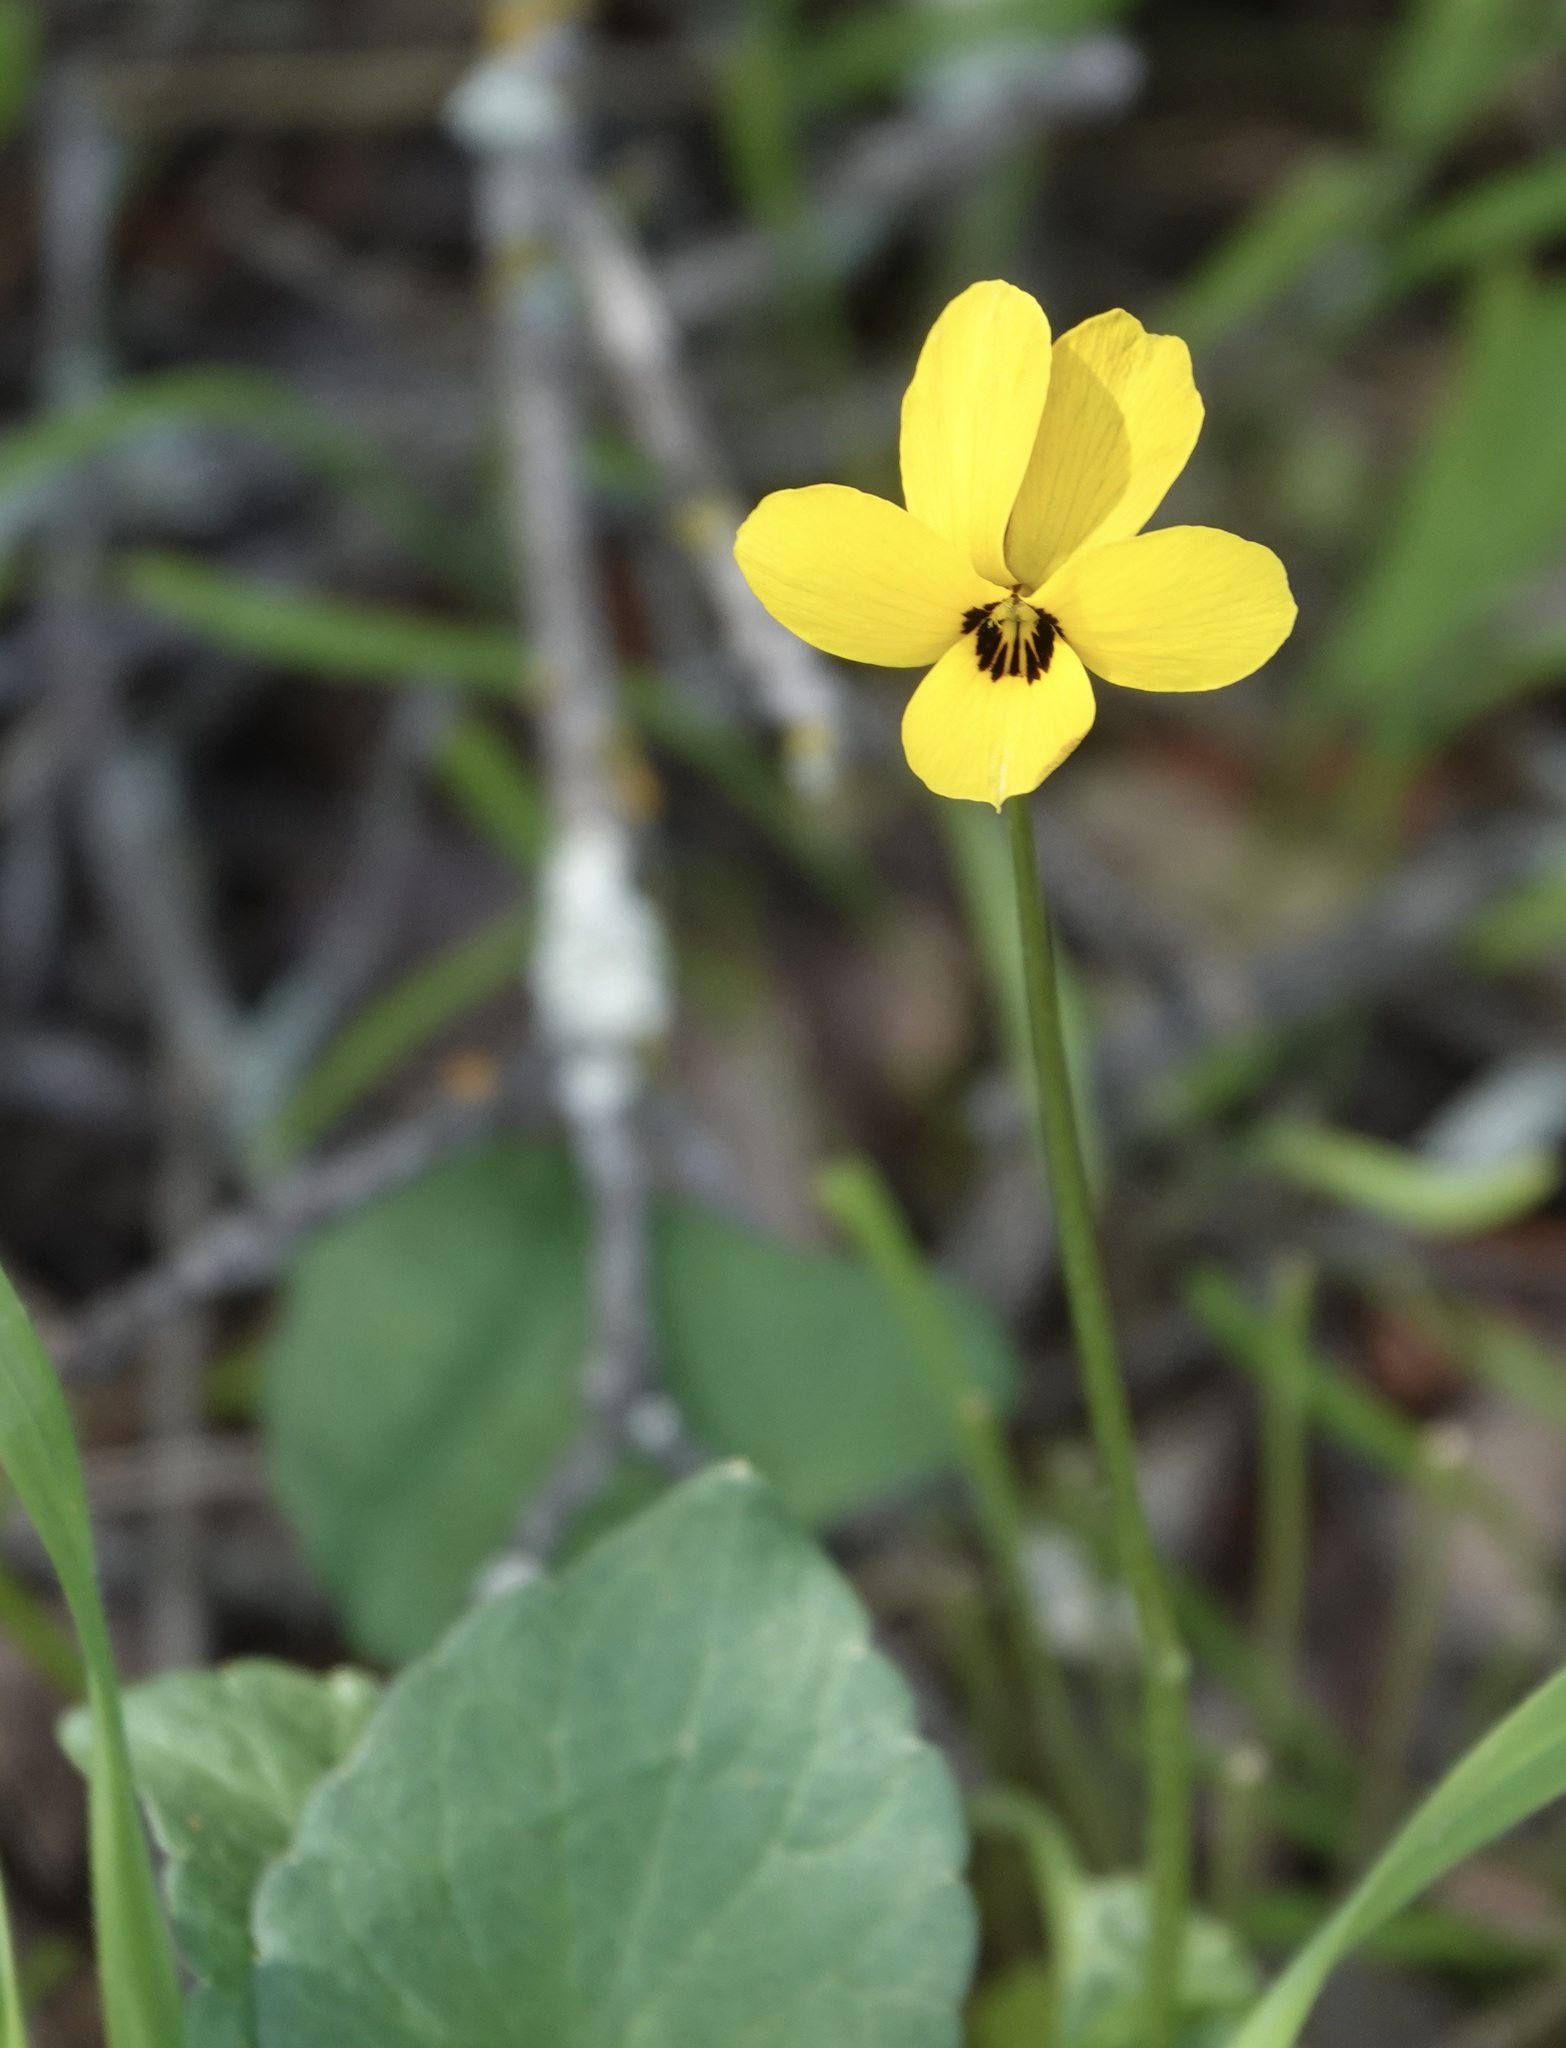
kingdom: Plantae
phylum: Tracheophyta
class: Magnoliopsida
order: Malpighiales
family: Violaceae
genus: Viola
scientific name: Viola pedunculata
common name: California golden violet
